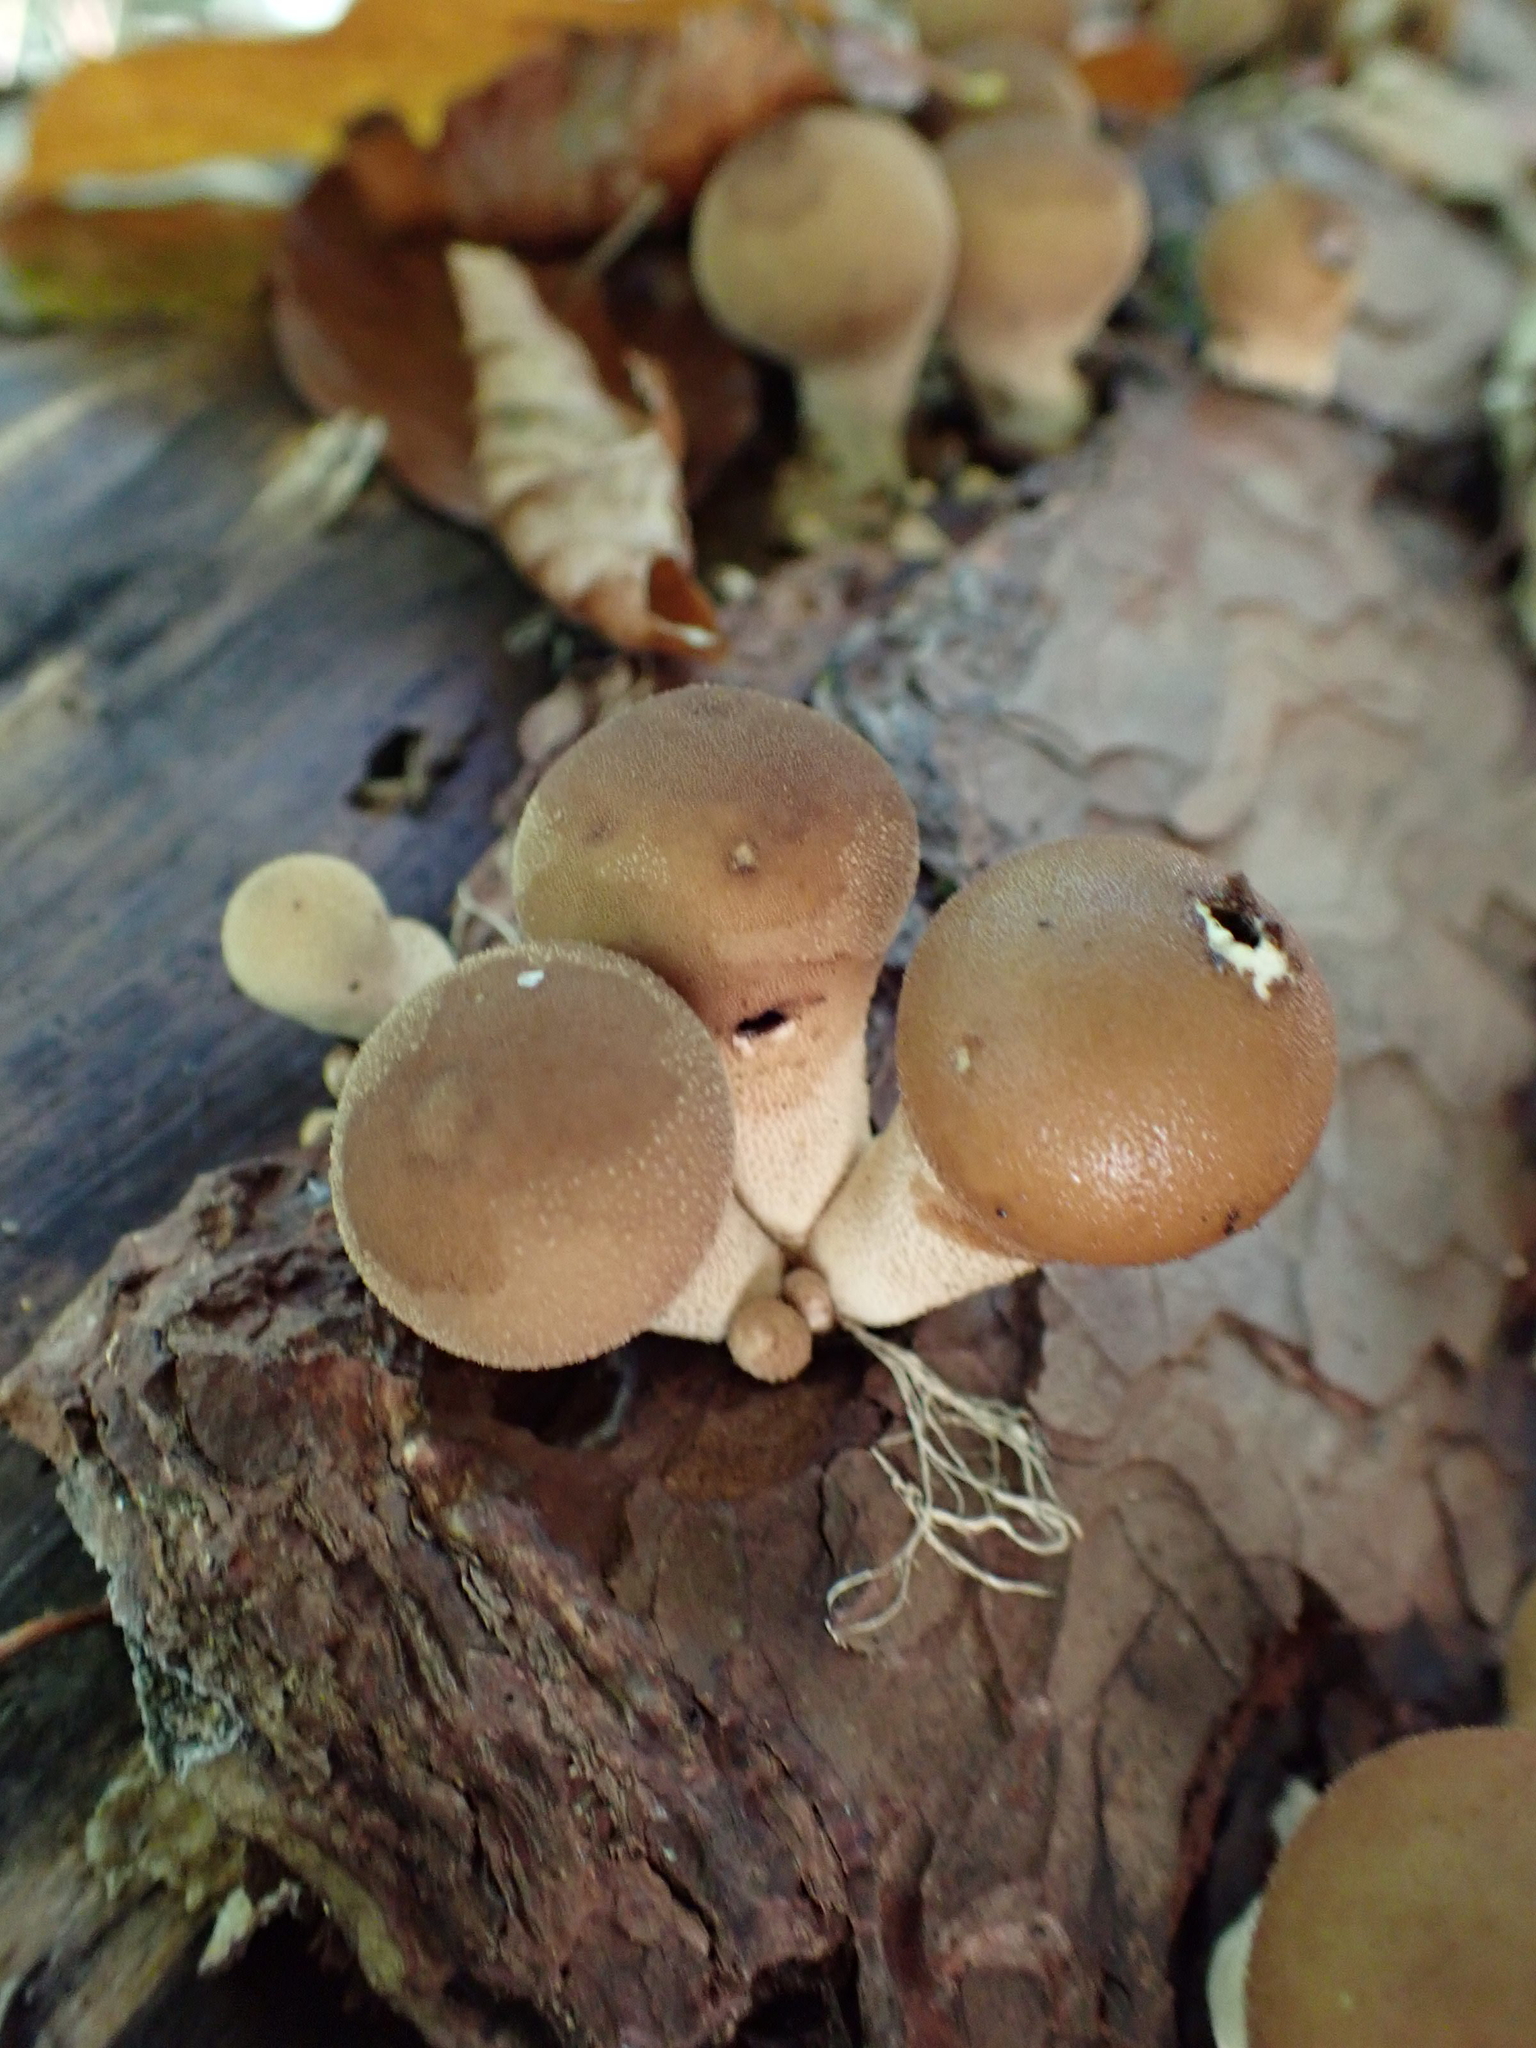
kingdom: Fungi
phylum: Basidiomycota
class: Agaricomycetes
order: Agaricales
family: Lycoperdaceae
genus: Apioperdon
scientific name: Apioperdon pyriforme
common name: Pear-shaped puffball
